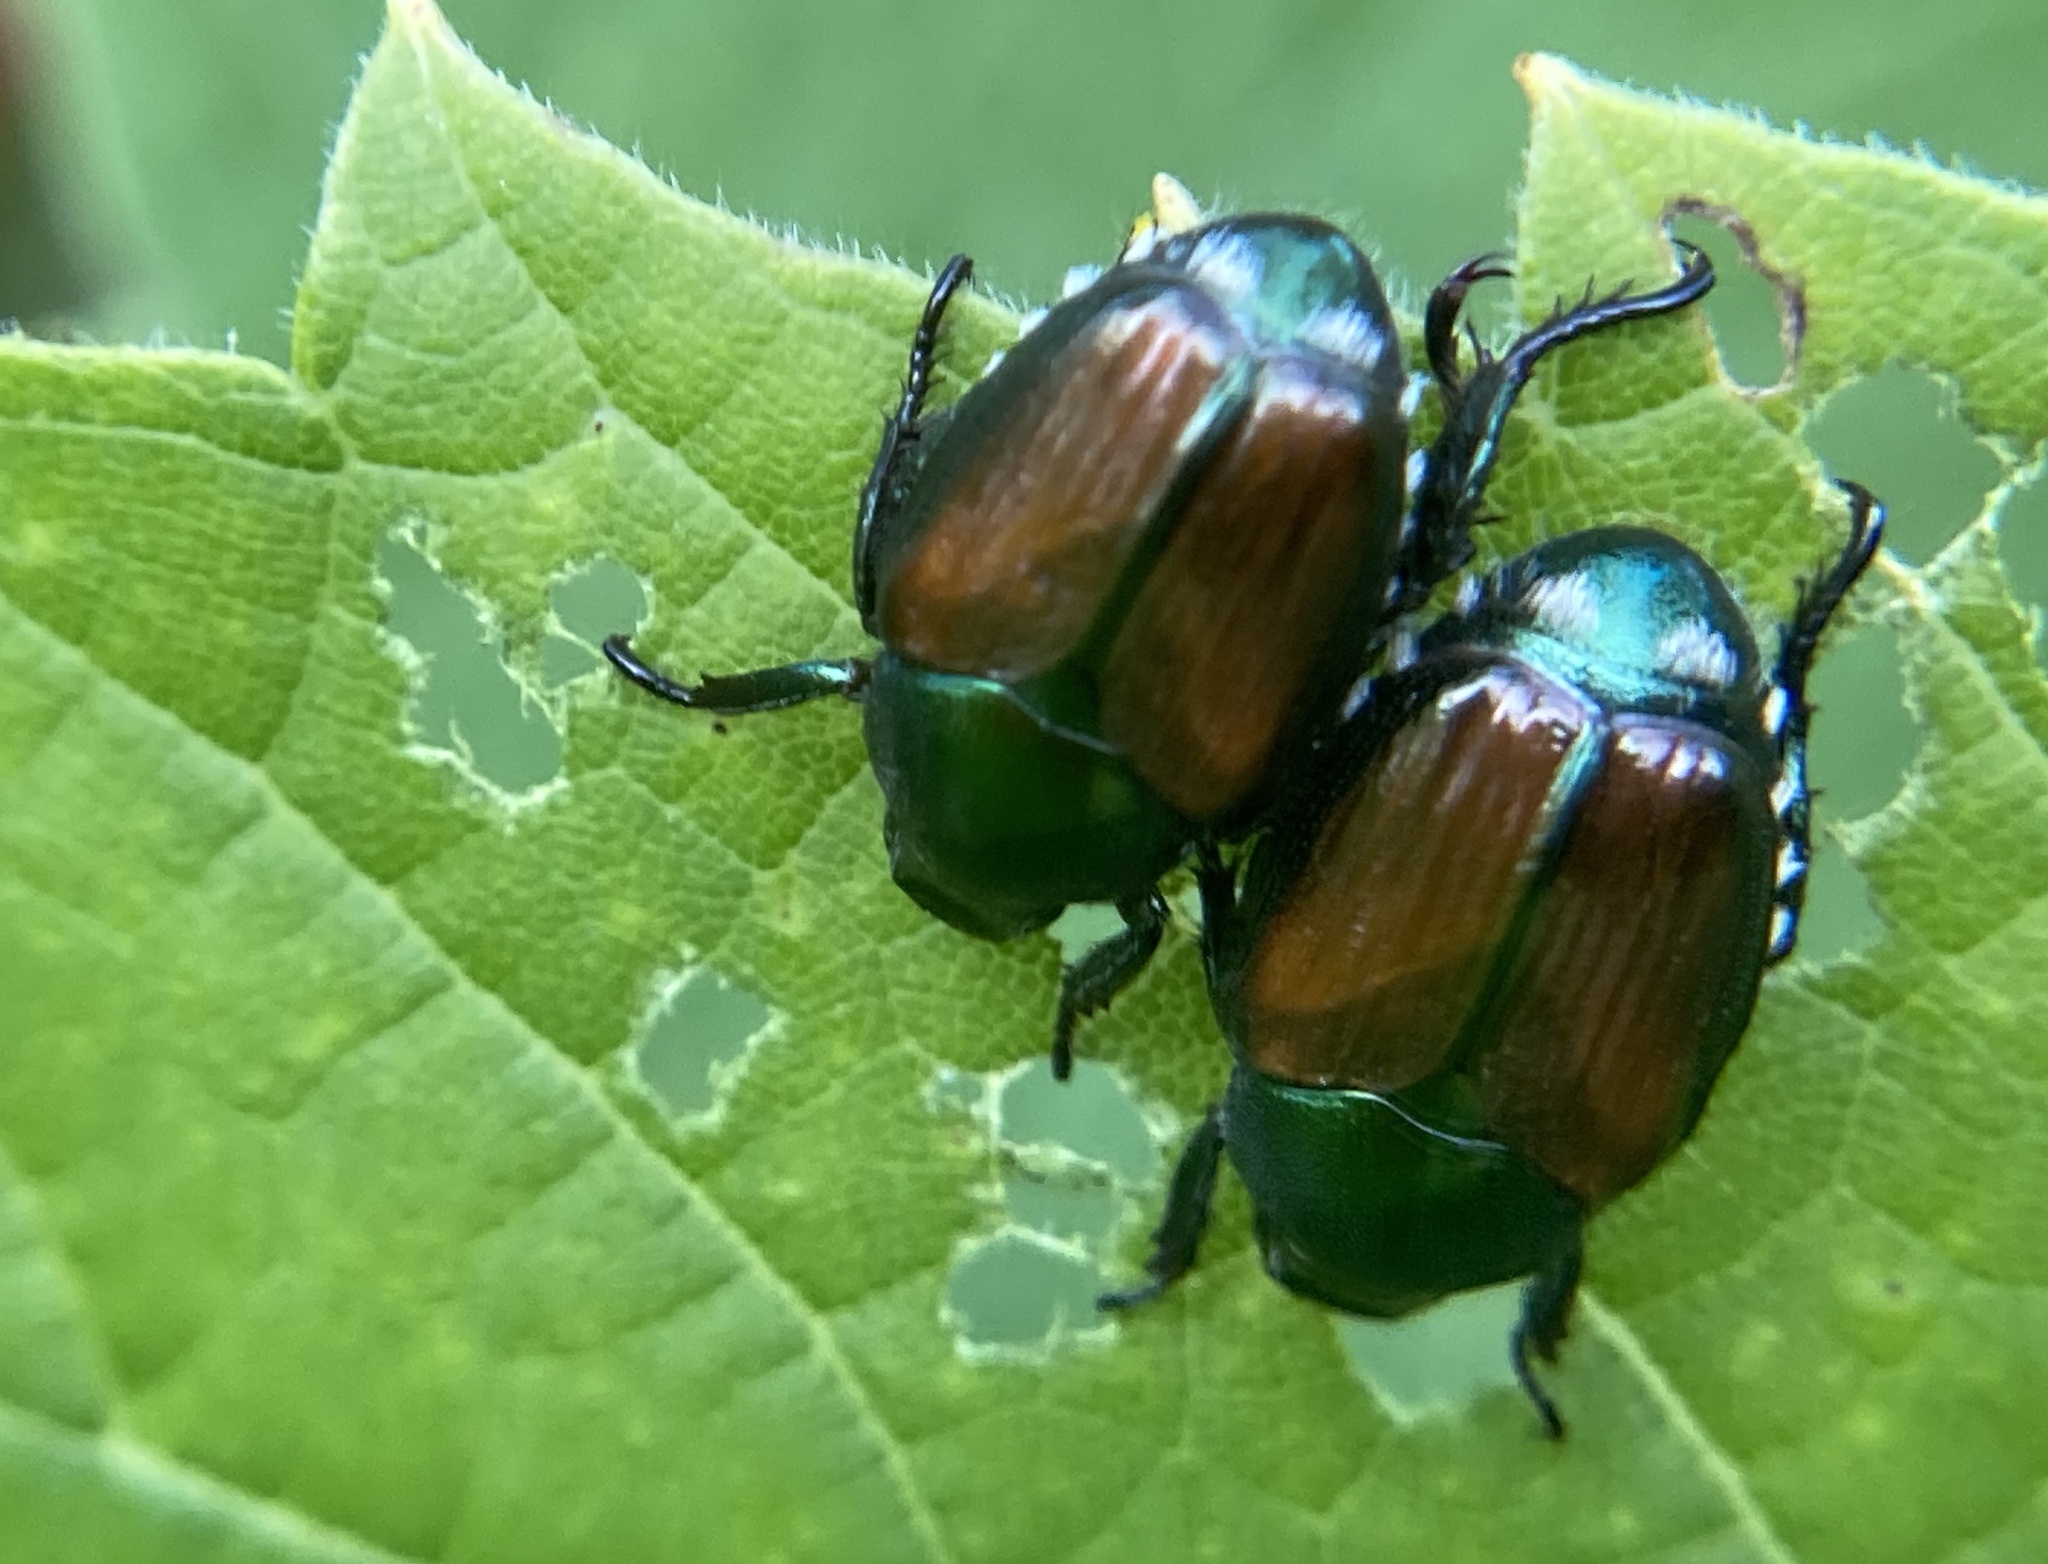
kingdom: Animalia
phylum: Arthropoda
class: Insecta
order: Coleoptera
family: Scarabaeidae
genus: Popillia
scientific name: Popillia japonica
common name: Japanese beetle
